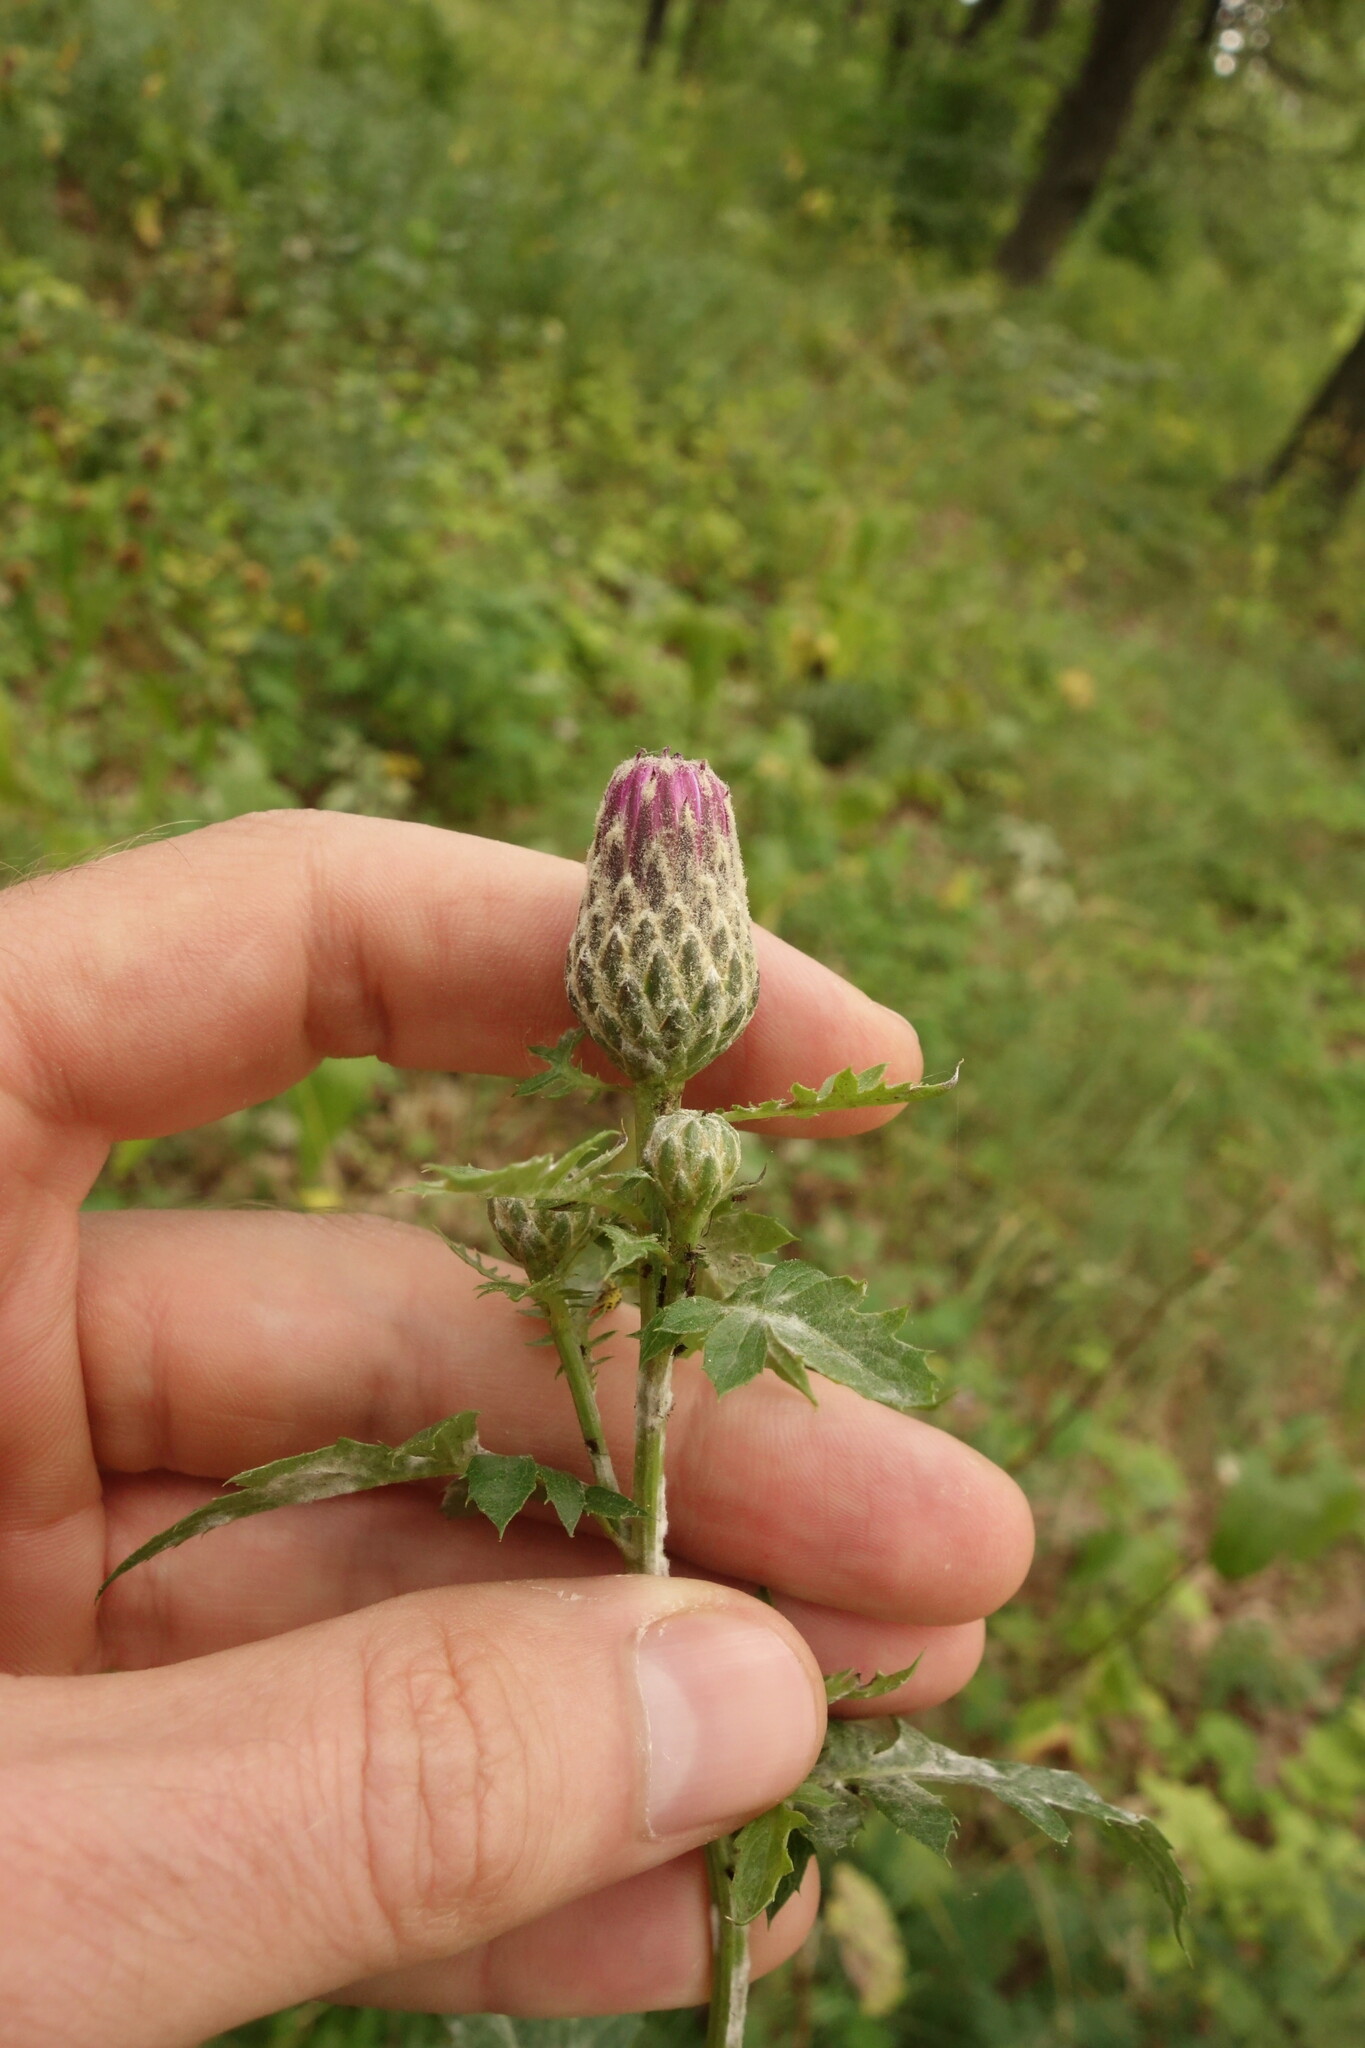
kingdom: Plantae
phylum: Tracheophyta
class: Magnoliopsida
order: Asterales
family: Asteraceae
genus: Serratula
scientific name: Serratula coronata
